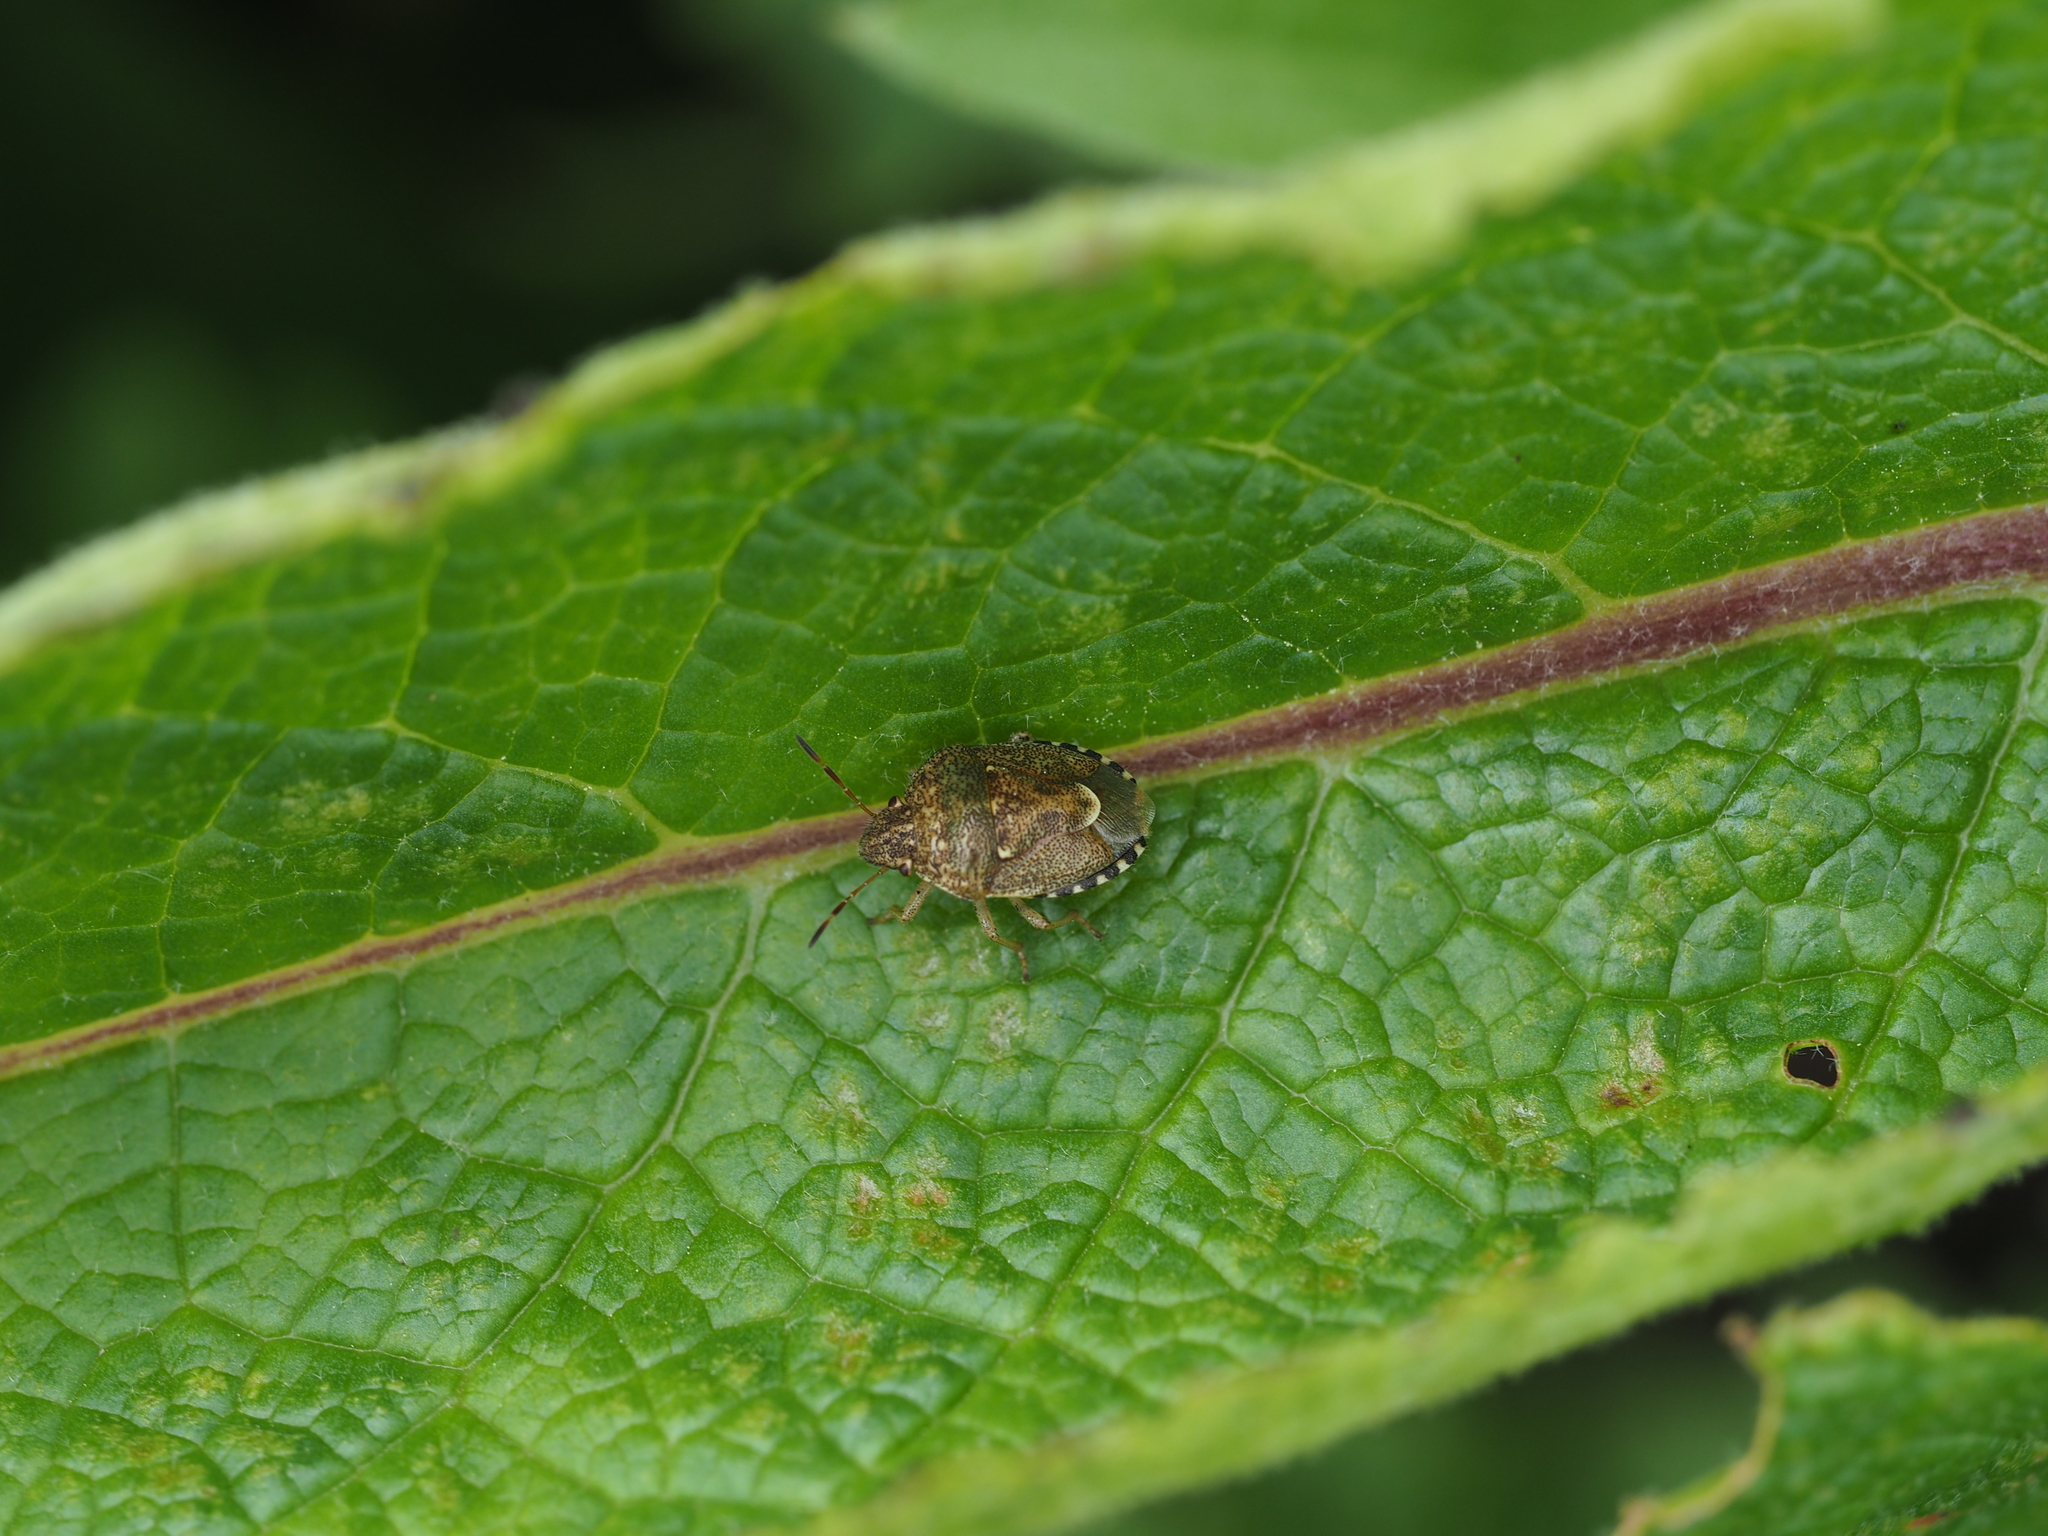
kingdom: Animalia
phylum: Arthropoda
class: Insecta
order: Hemiptera
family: Pentatomidae
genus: Staria
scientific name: Staria lunata
